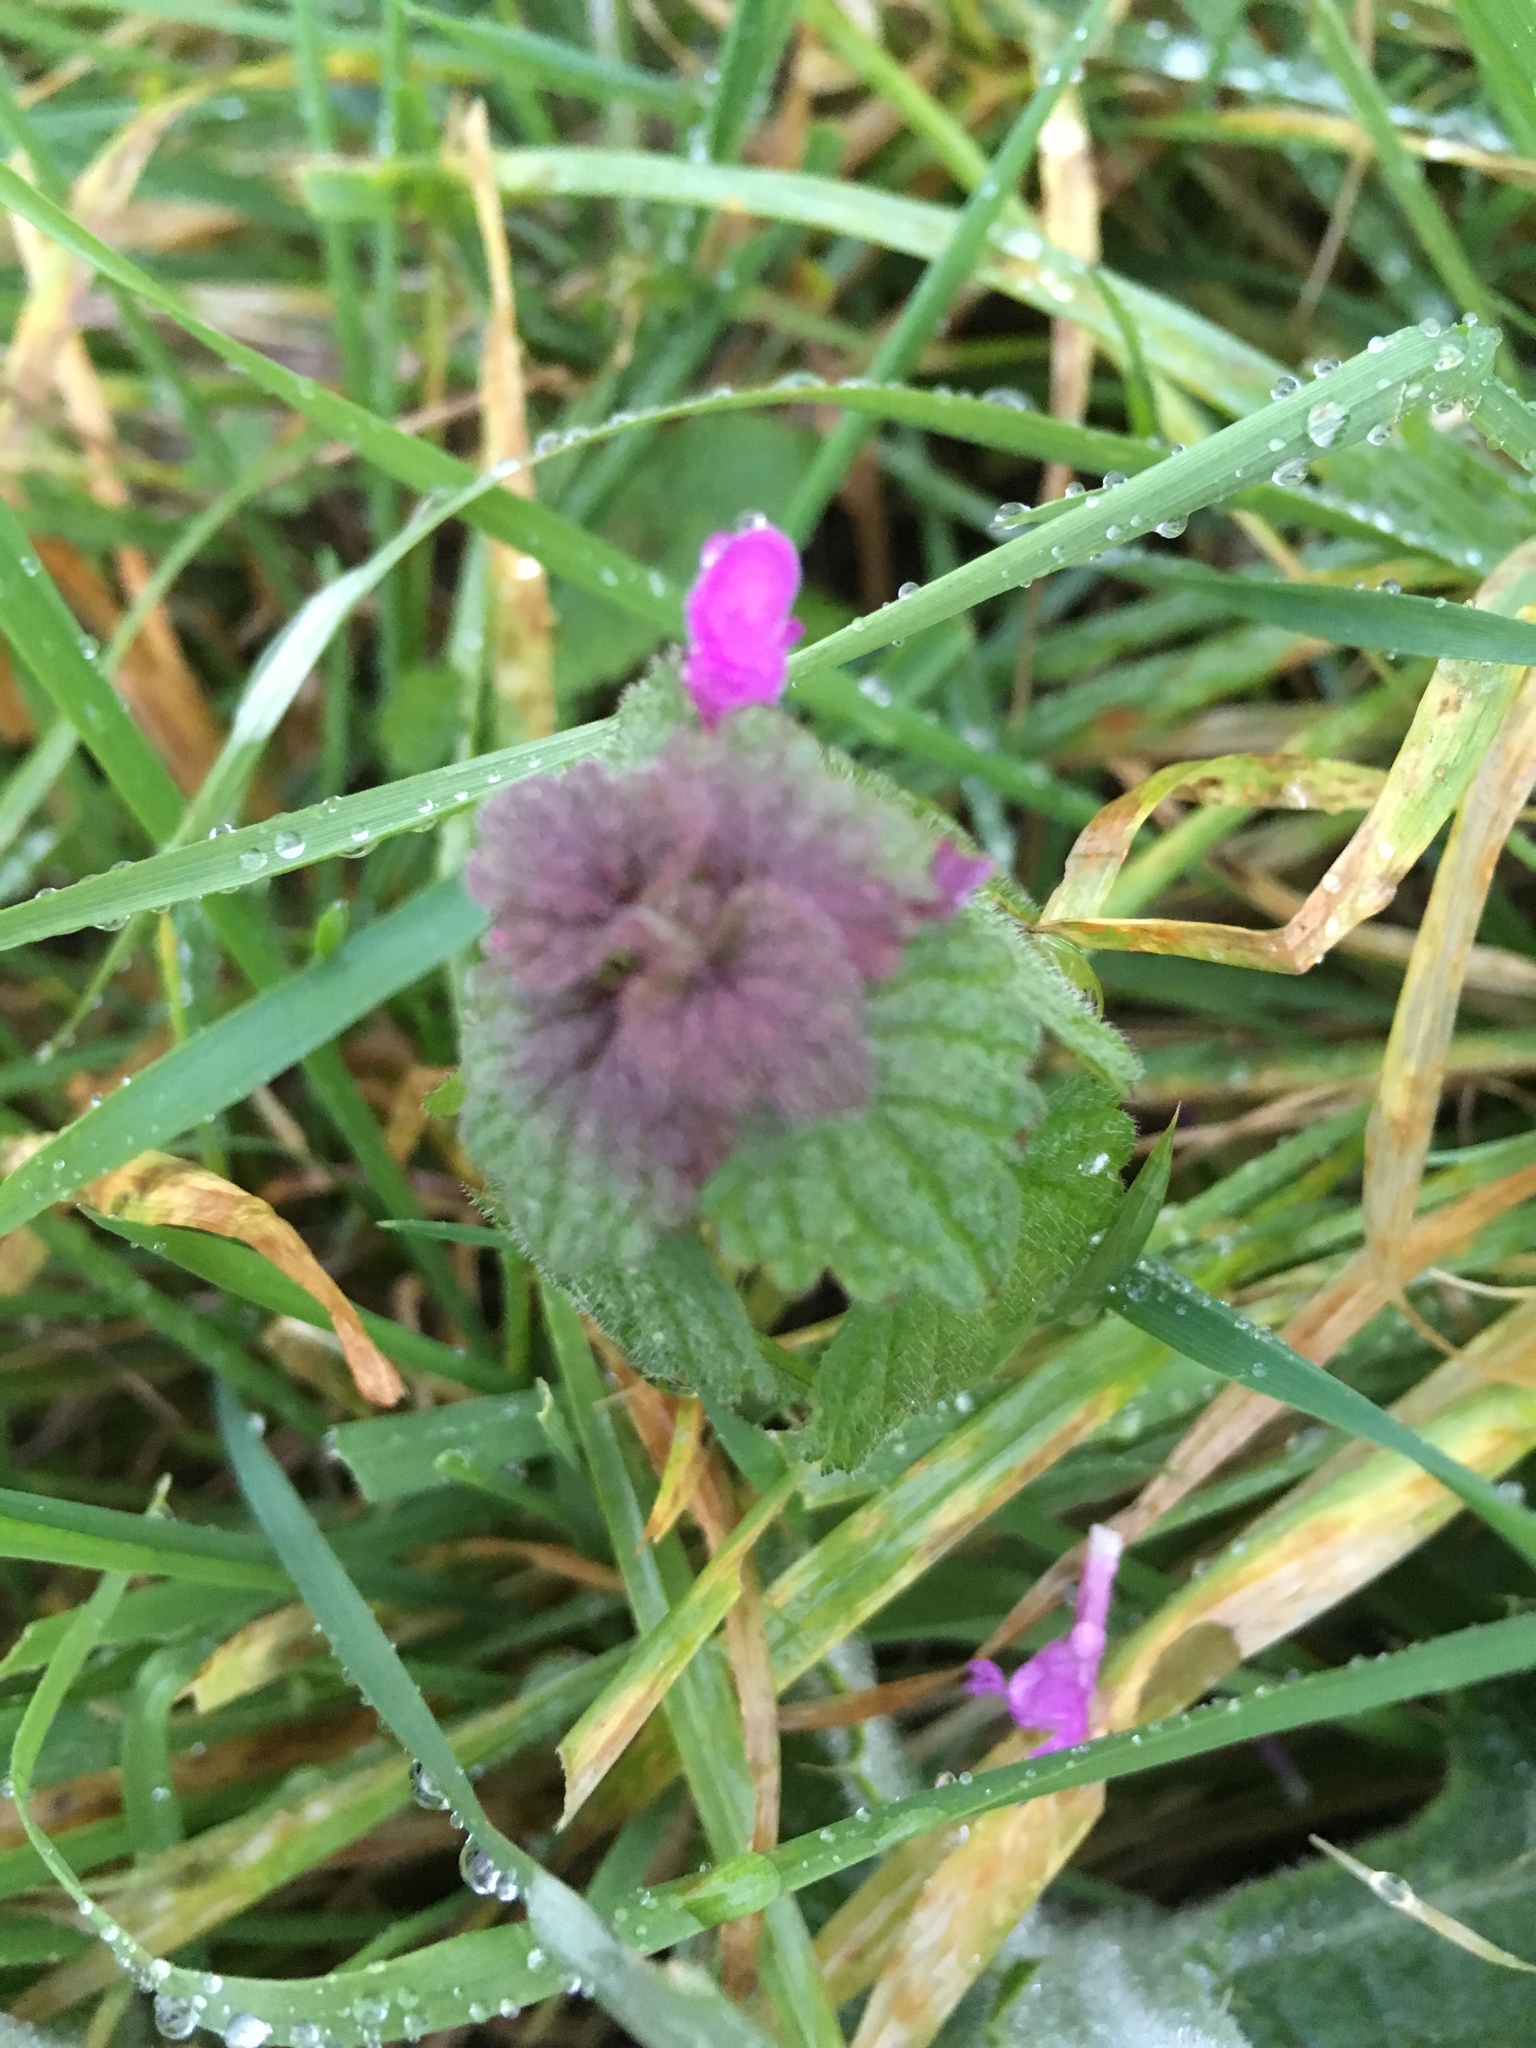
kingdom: Plantae
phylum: Tracheophyta
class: Magnoliopsida
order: Lamiales
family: Lamiaceae
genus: Lamium
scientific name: Lamium purpureum
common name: Red dead-nettle
